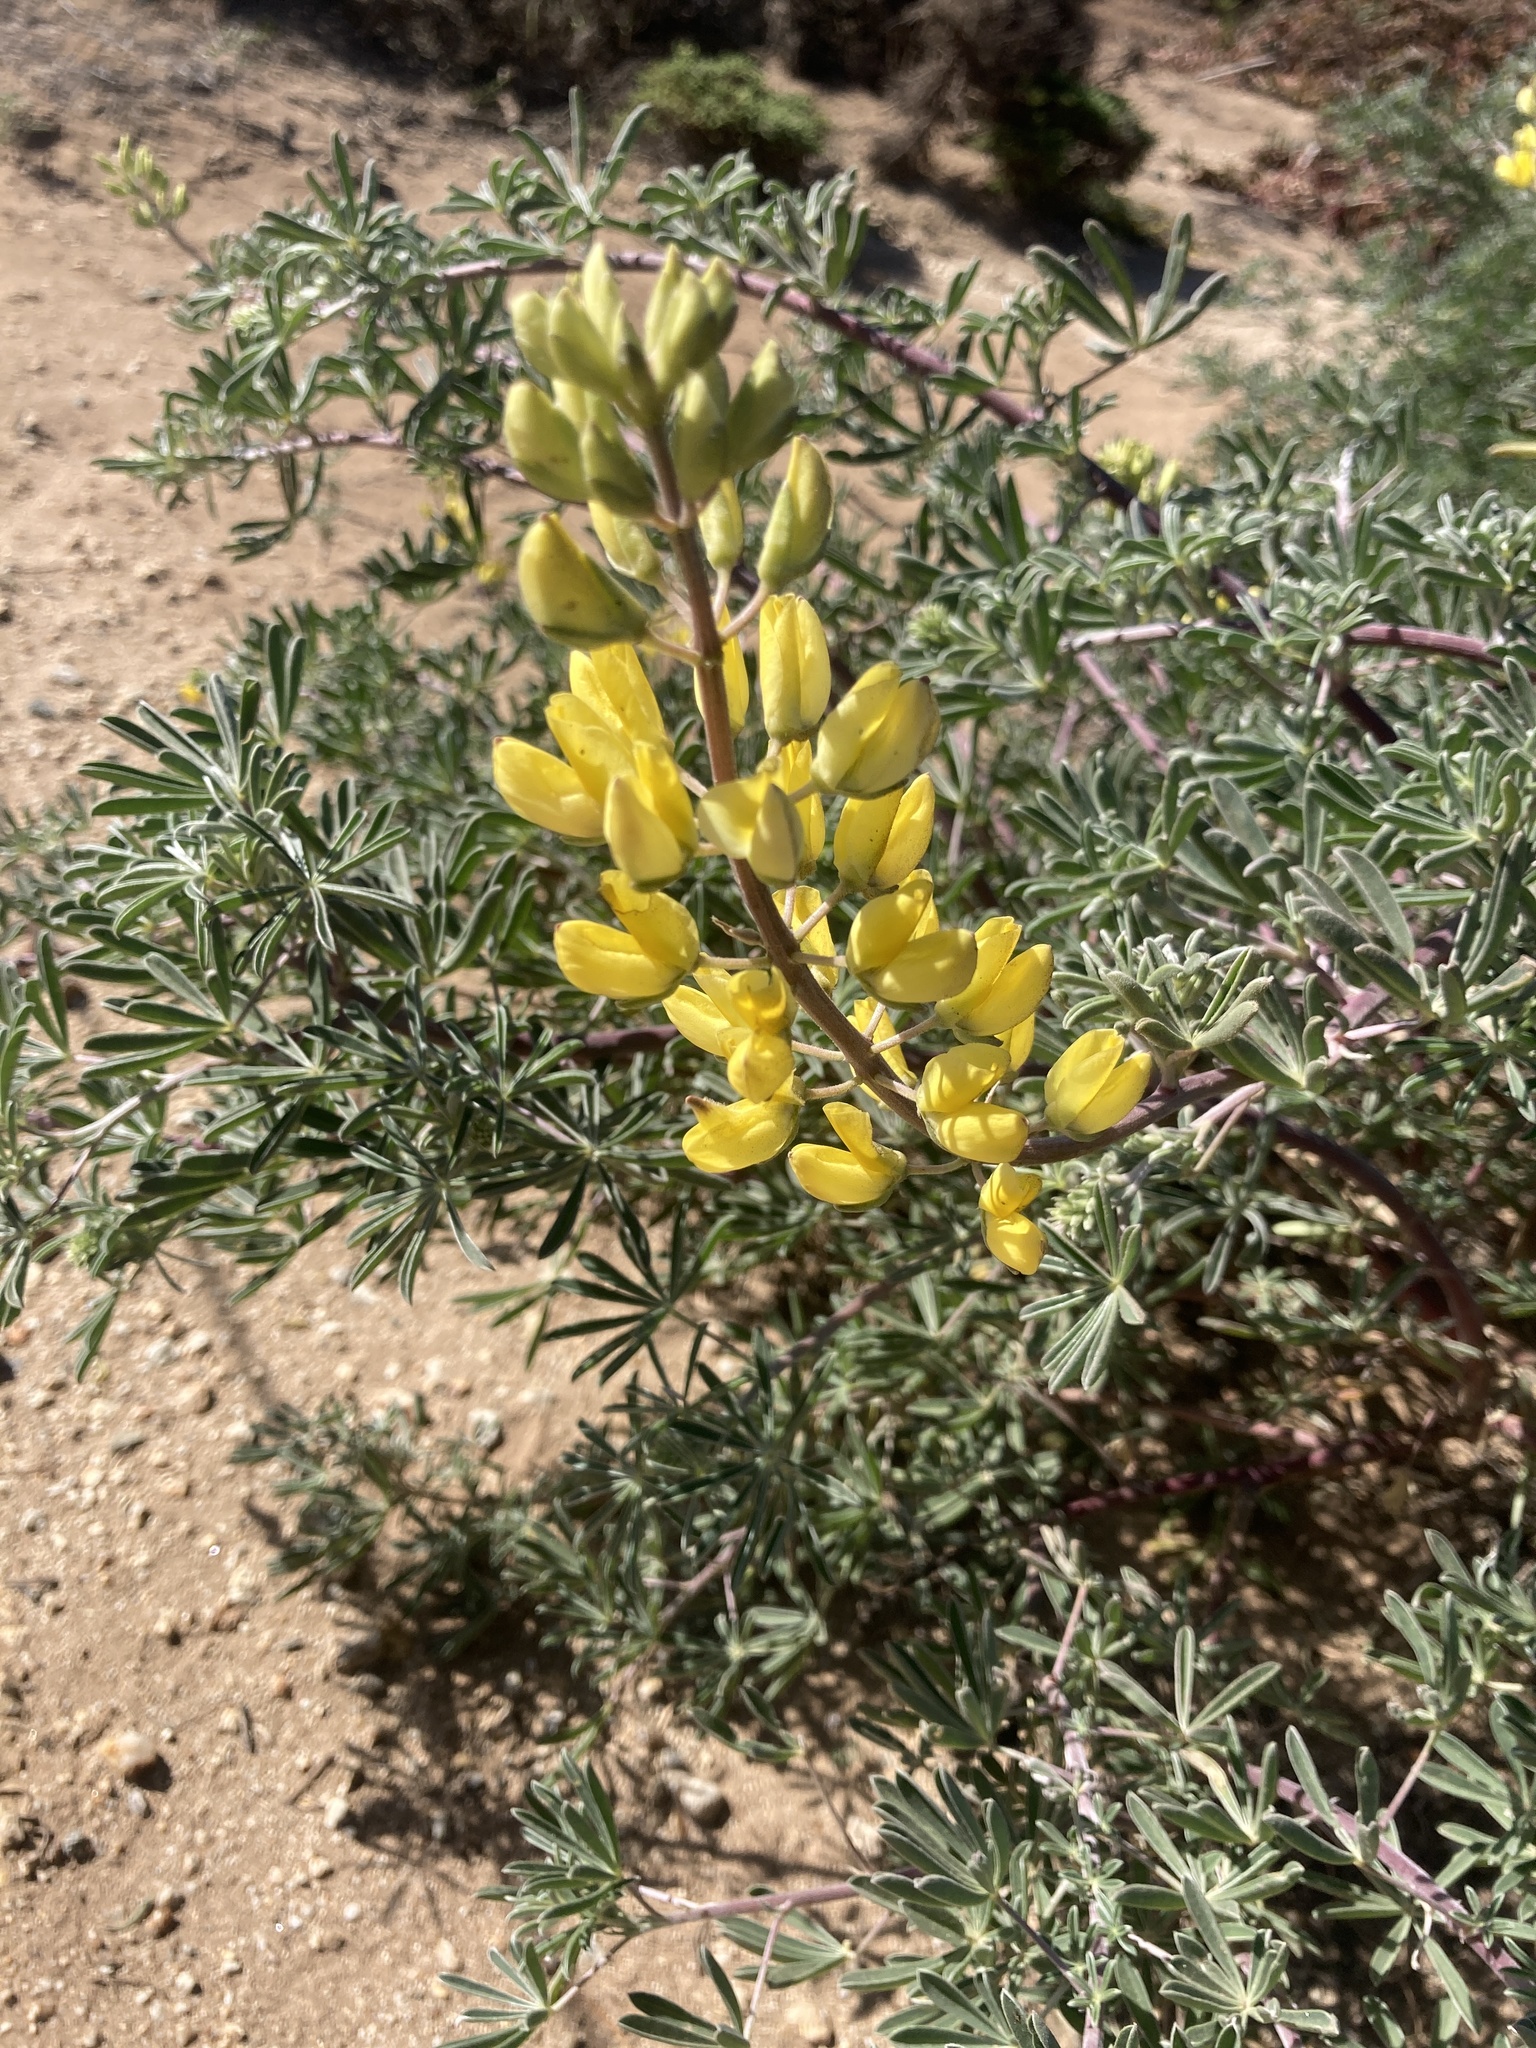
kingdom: Plantae
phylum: Tracheophyta
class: Magnoliopsida
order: Fabales
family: Fabaceae
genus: Lupinus
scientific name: Lupinus arboreus
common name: Yellow bush lupine
